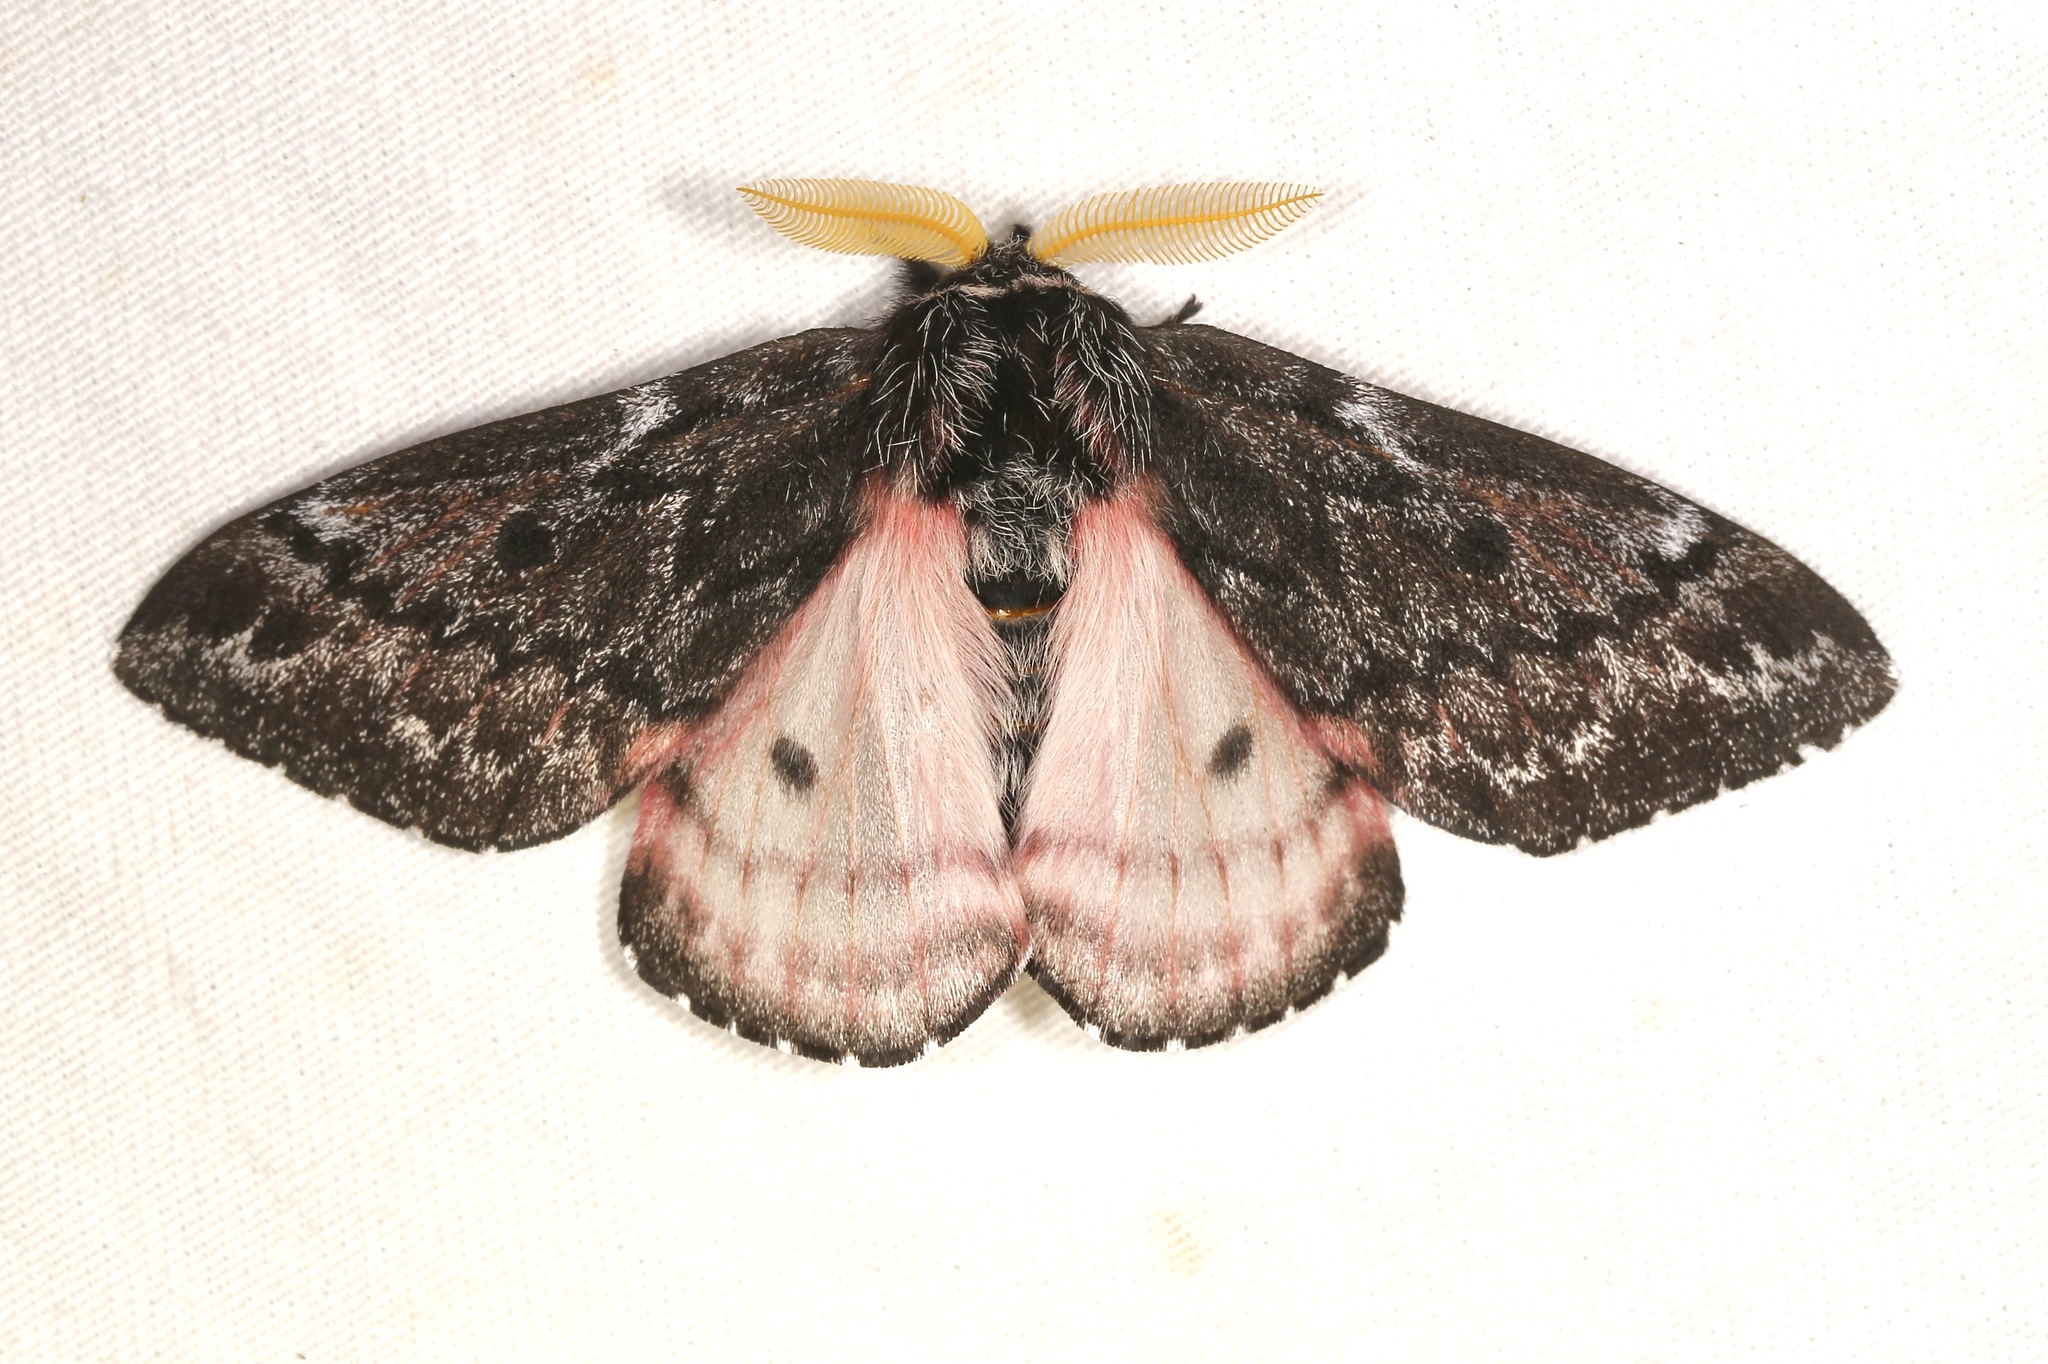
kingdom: Animalia
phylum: Arthropoda
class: Insecta
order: Lepidoptera
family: Saturniidae
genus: Coloradia
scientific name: Coloradia pandora
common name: Pandora pinemoth
